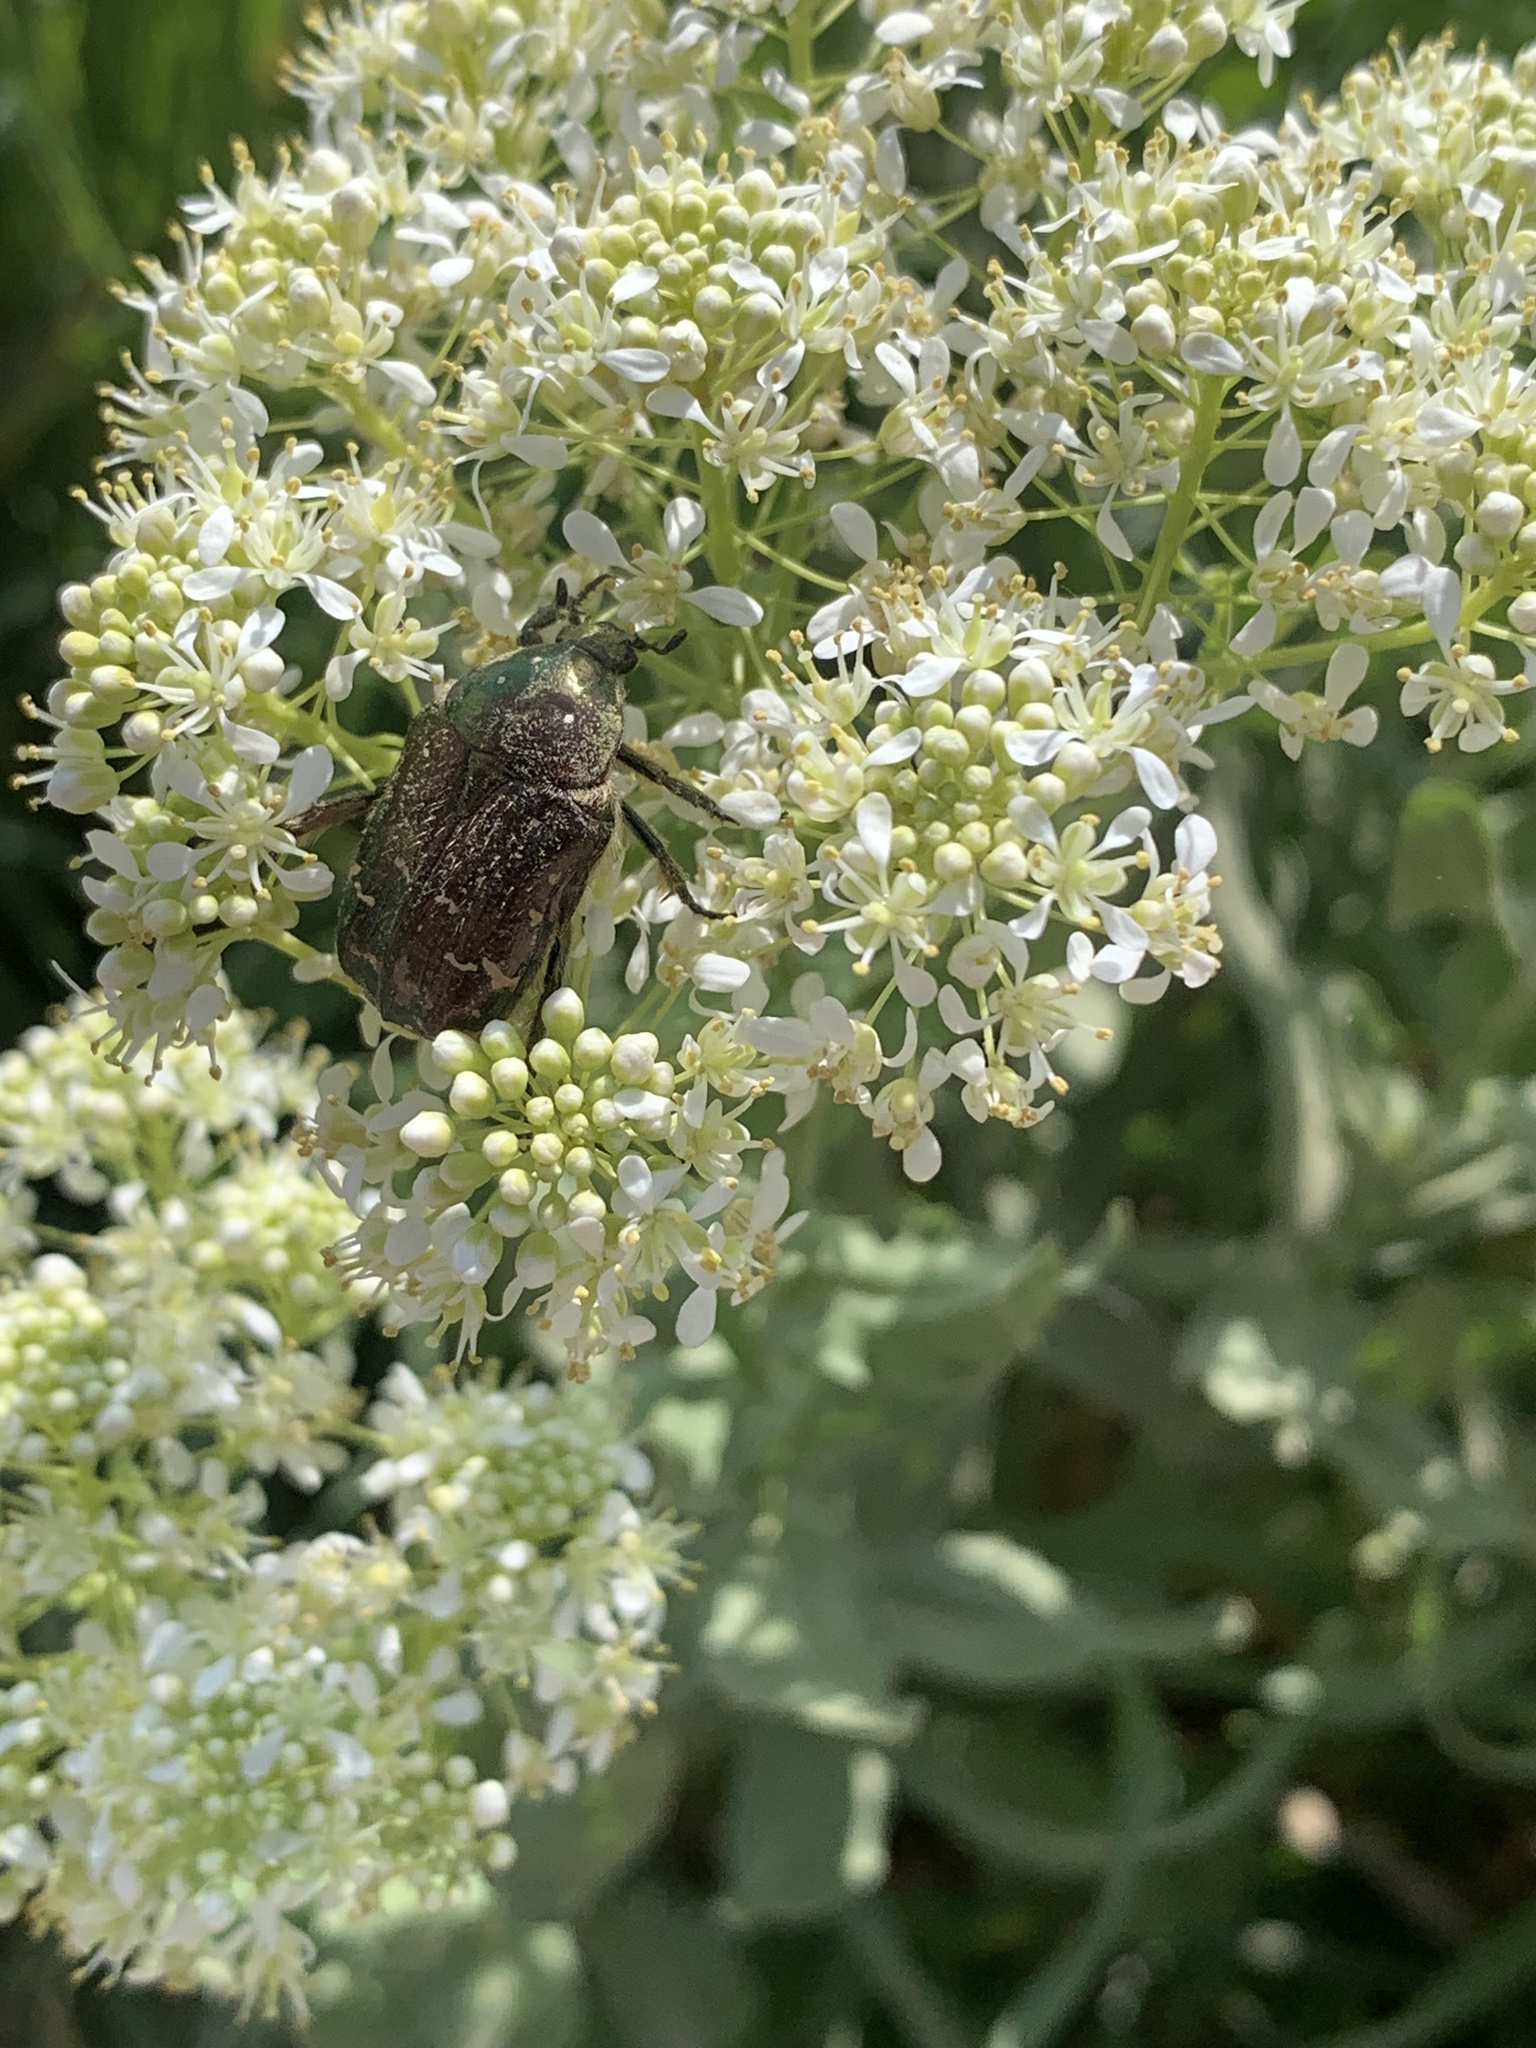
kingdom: Animalia
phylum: Arthropoda
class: Insecta
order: Coleoptera
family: Scarabaeidae
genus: Cetonia
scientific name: Cetonia aurata
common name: Rose chafer
